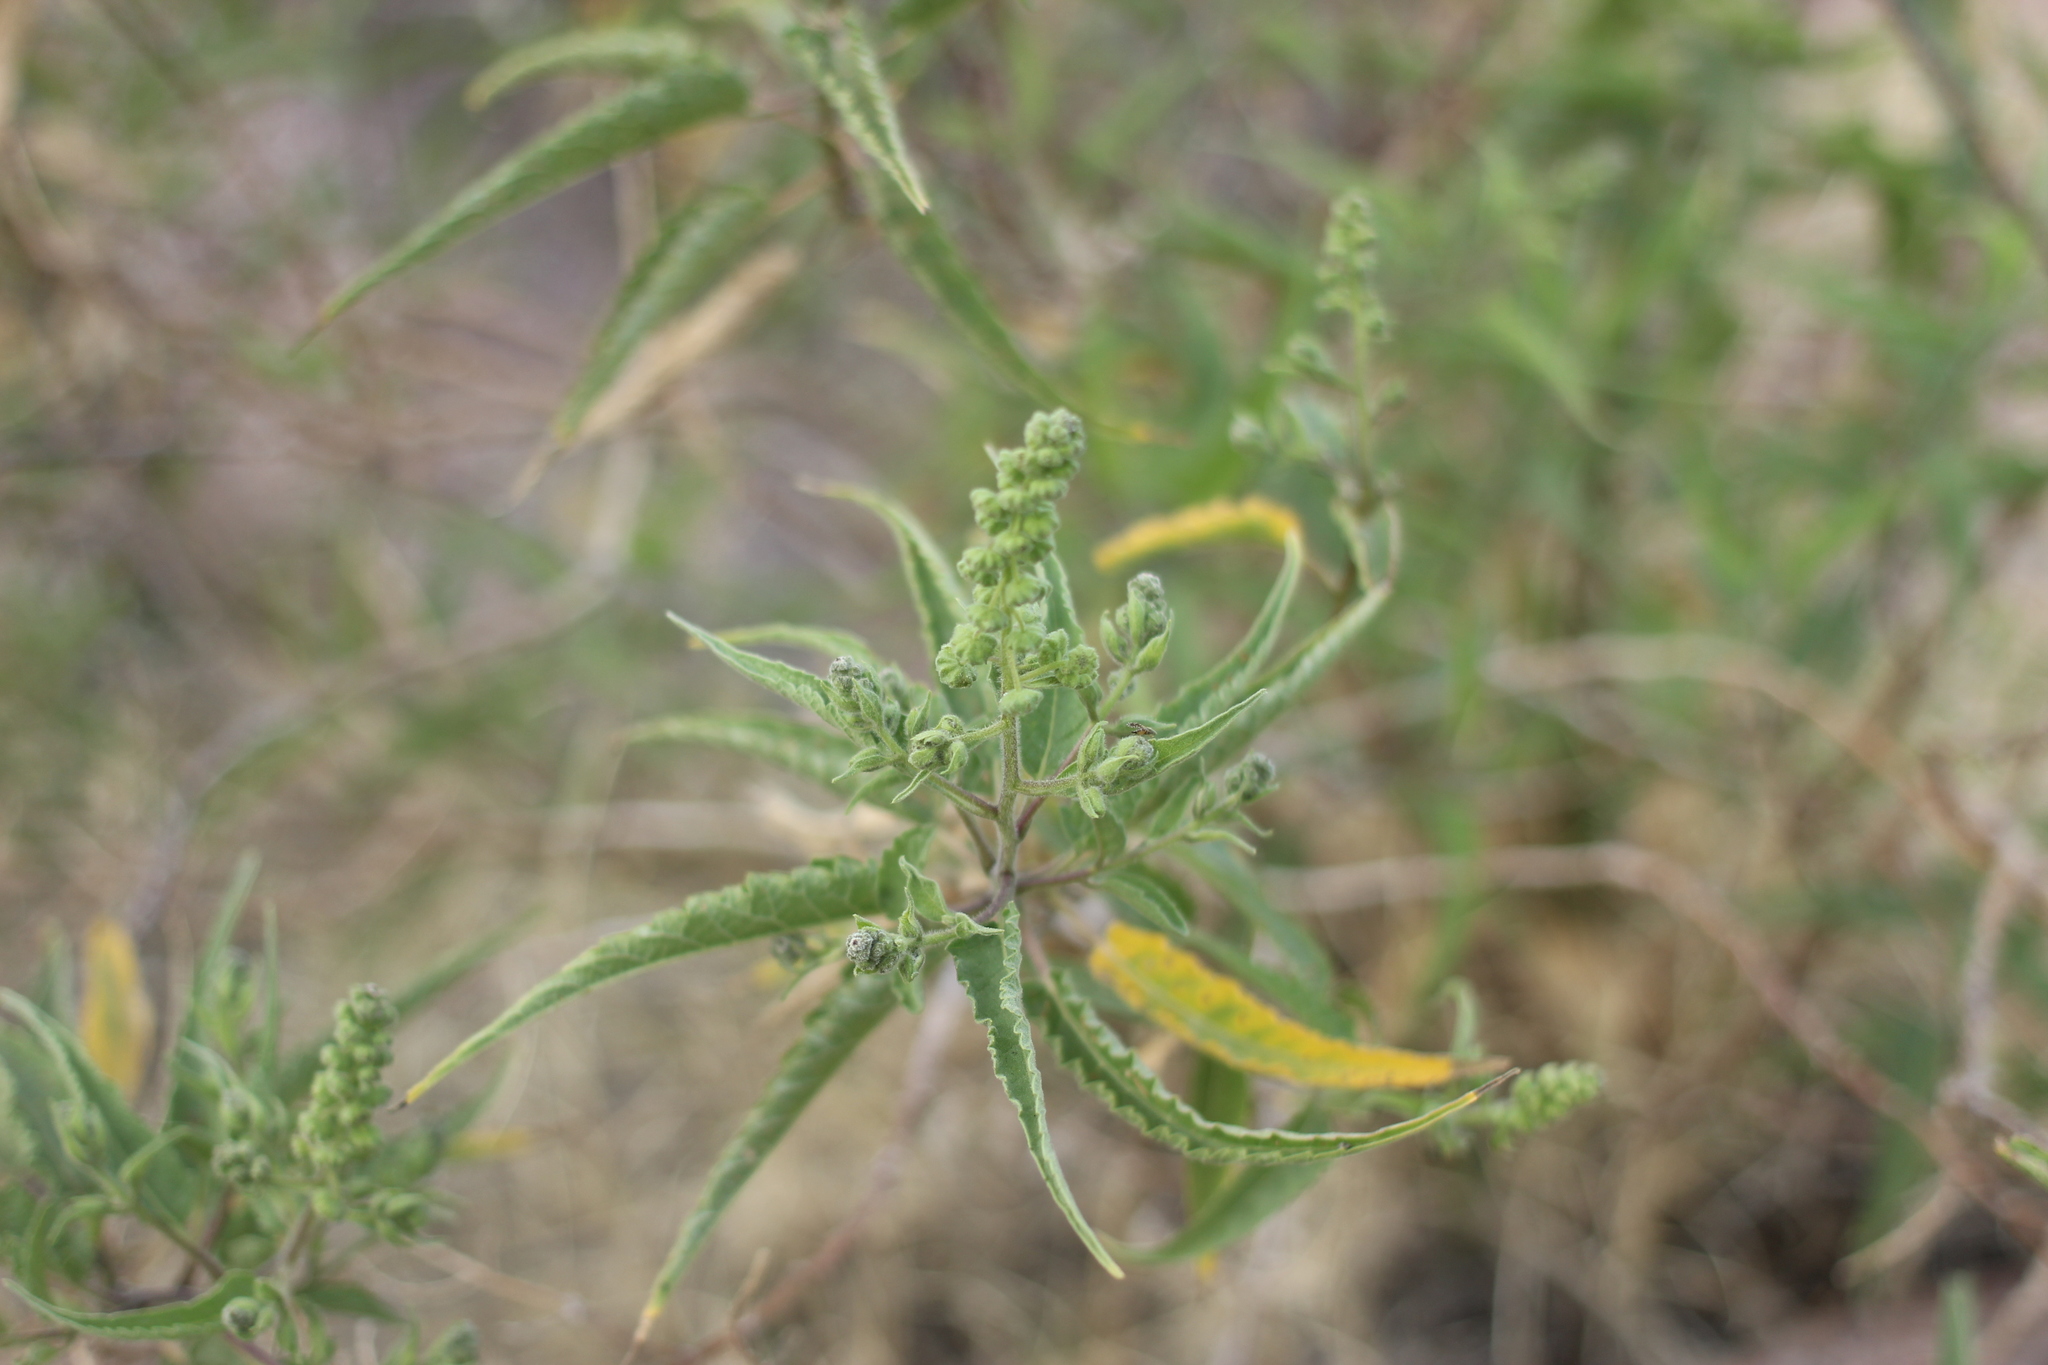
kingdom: Plantae
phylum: Tracheophyta
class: Magnoliopsida
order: Asterales
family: Asteraceae
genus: Ambrosia
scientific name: Ambrosia ambrosioides
